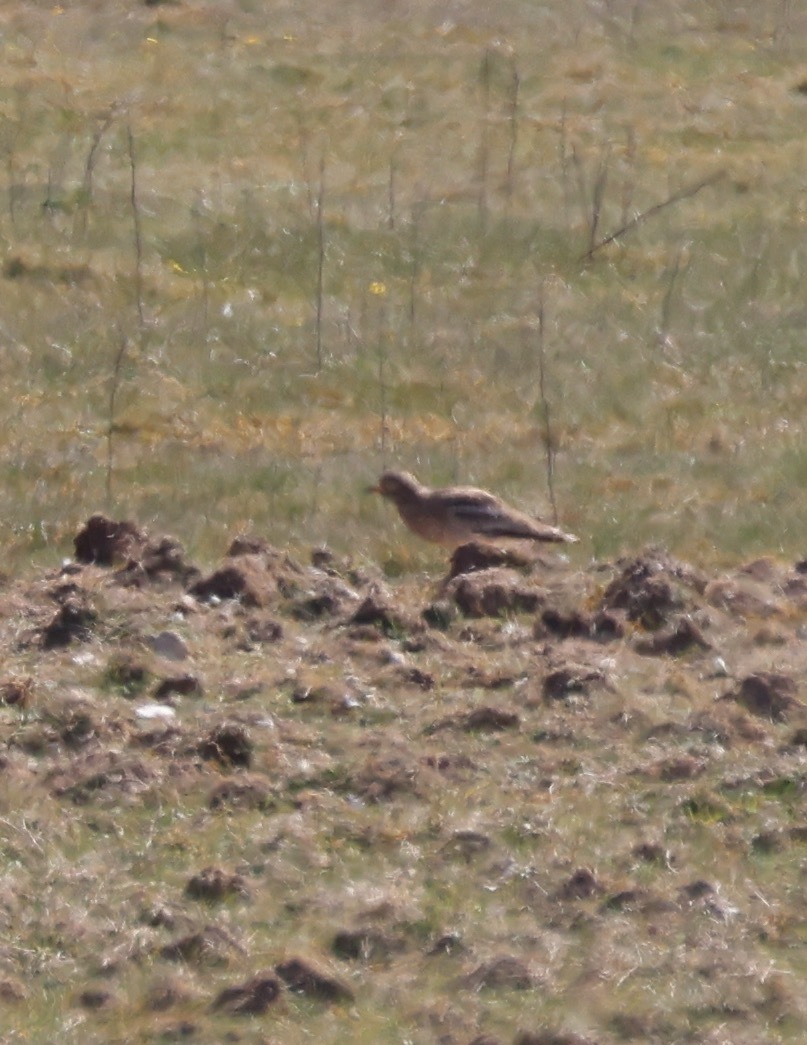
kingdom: Animalia
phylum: Chordata
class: Aves
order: Charadriiformes
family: Burhinidae
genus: Burhinus
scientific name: Burhinus oedicnemus
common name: Eurasian stone-curlew
